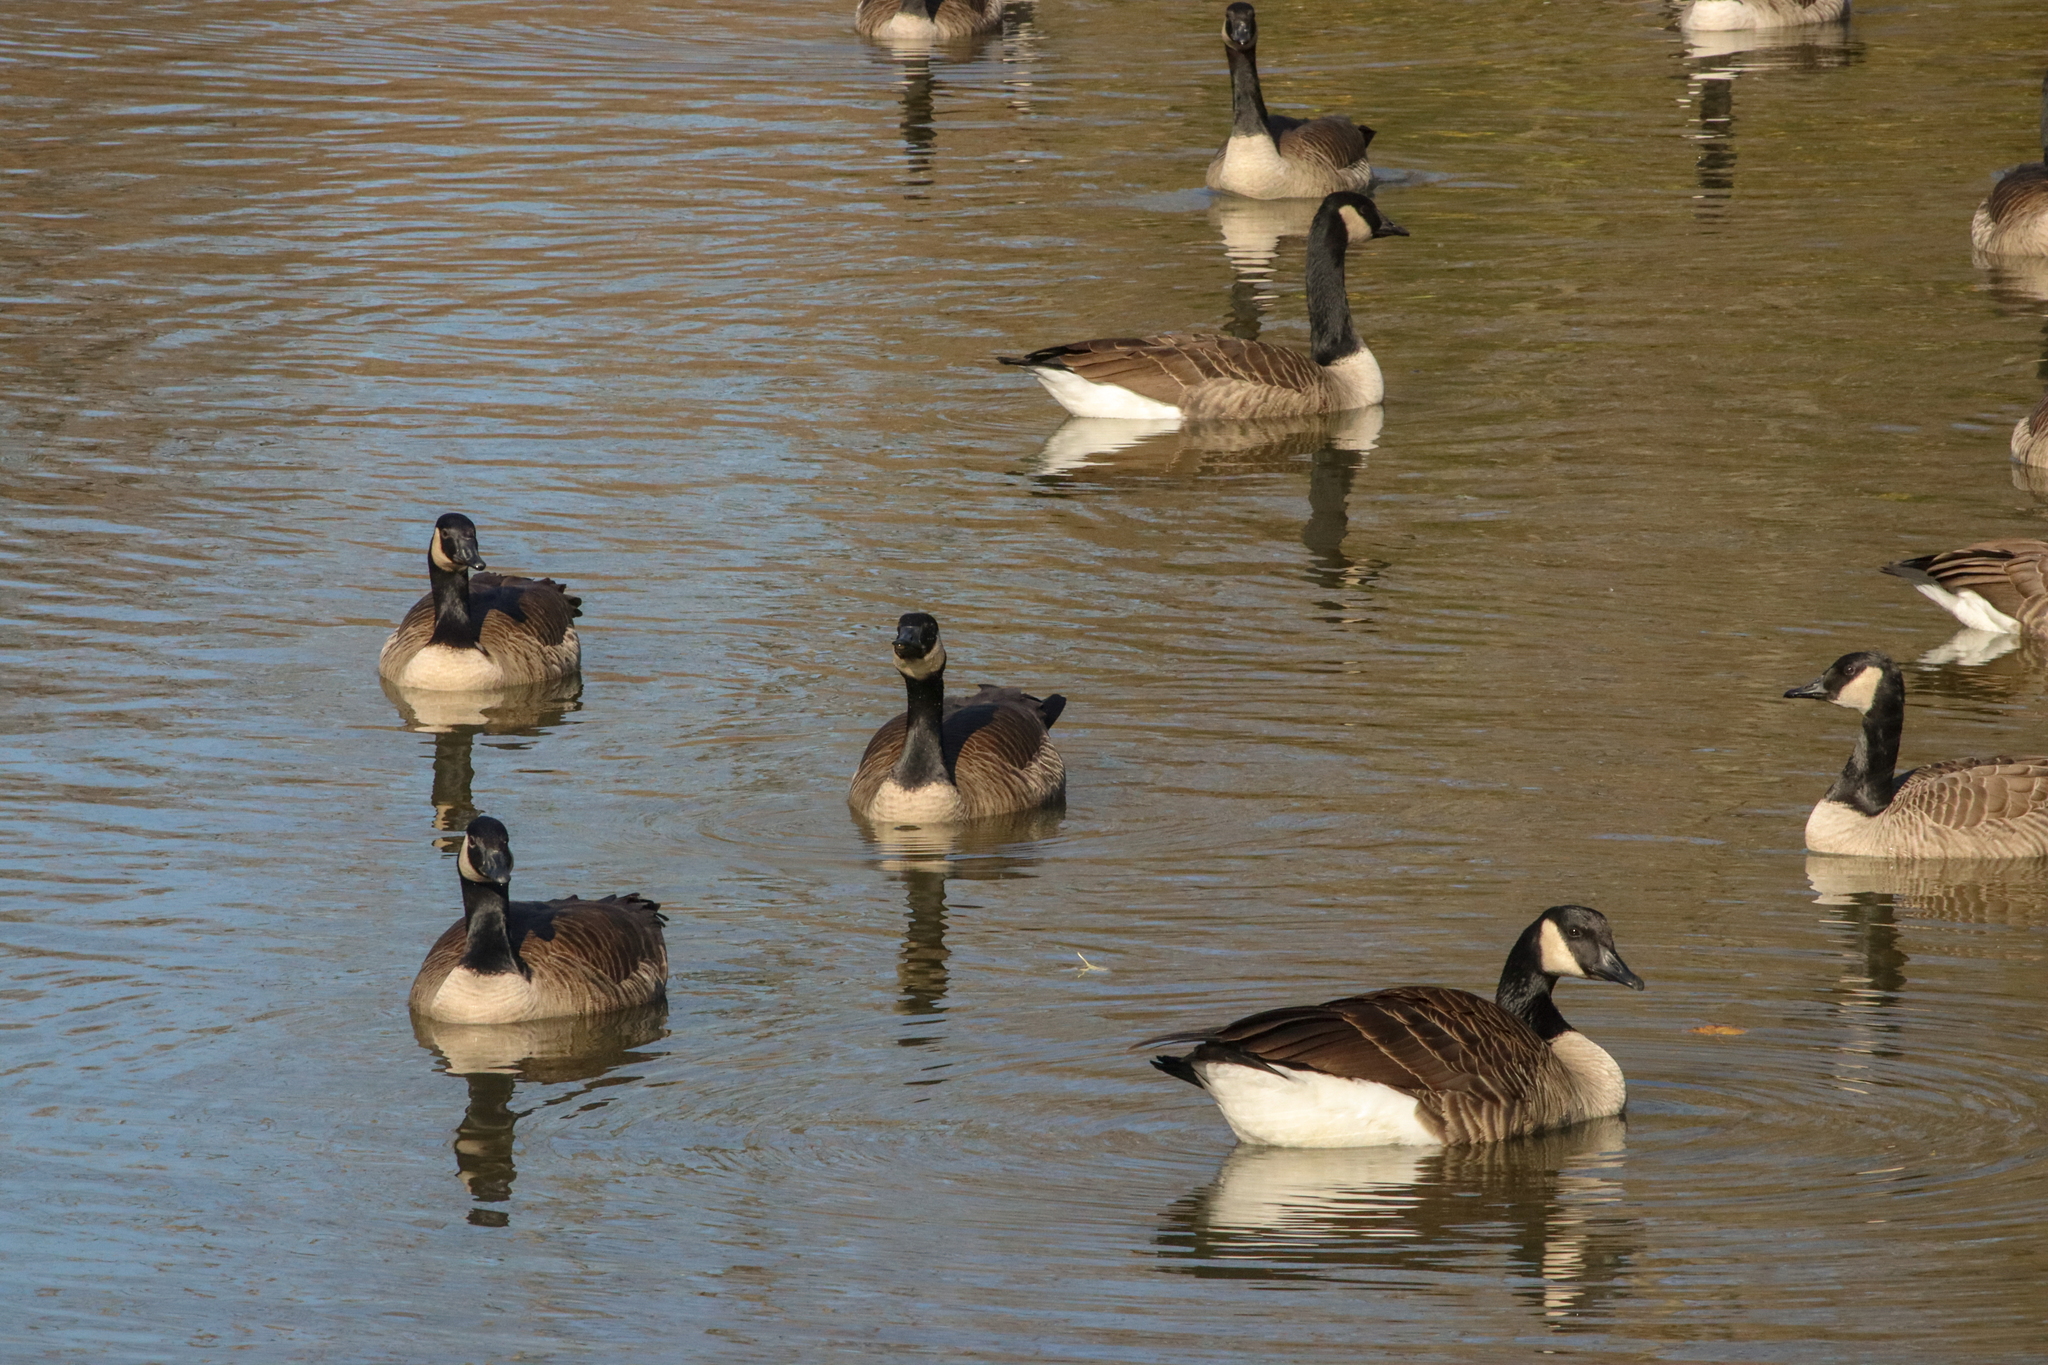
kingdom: Animalia
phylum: Chordata
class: Aves
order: Anseriformes
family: Anatidae
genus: Branta
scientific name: Branta canadensis
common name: Canada goose
